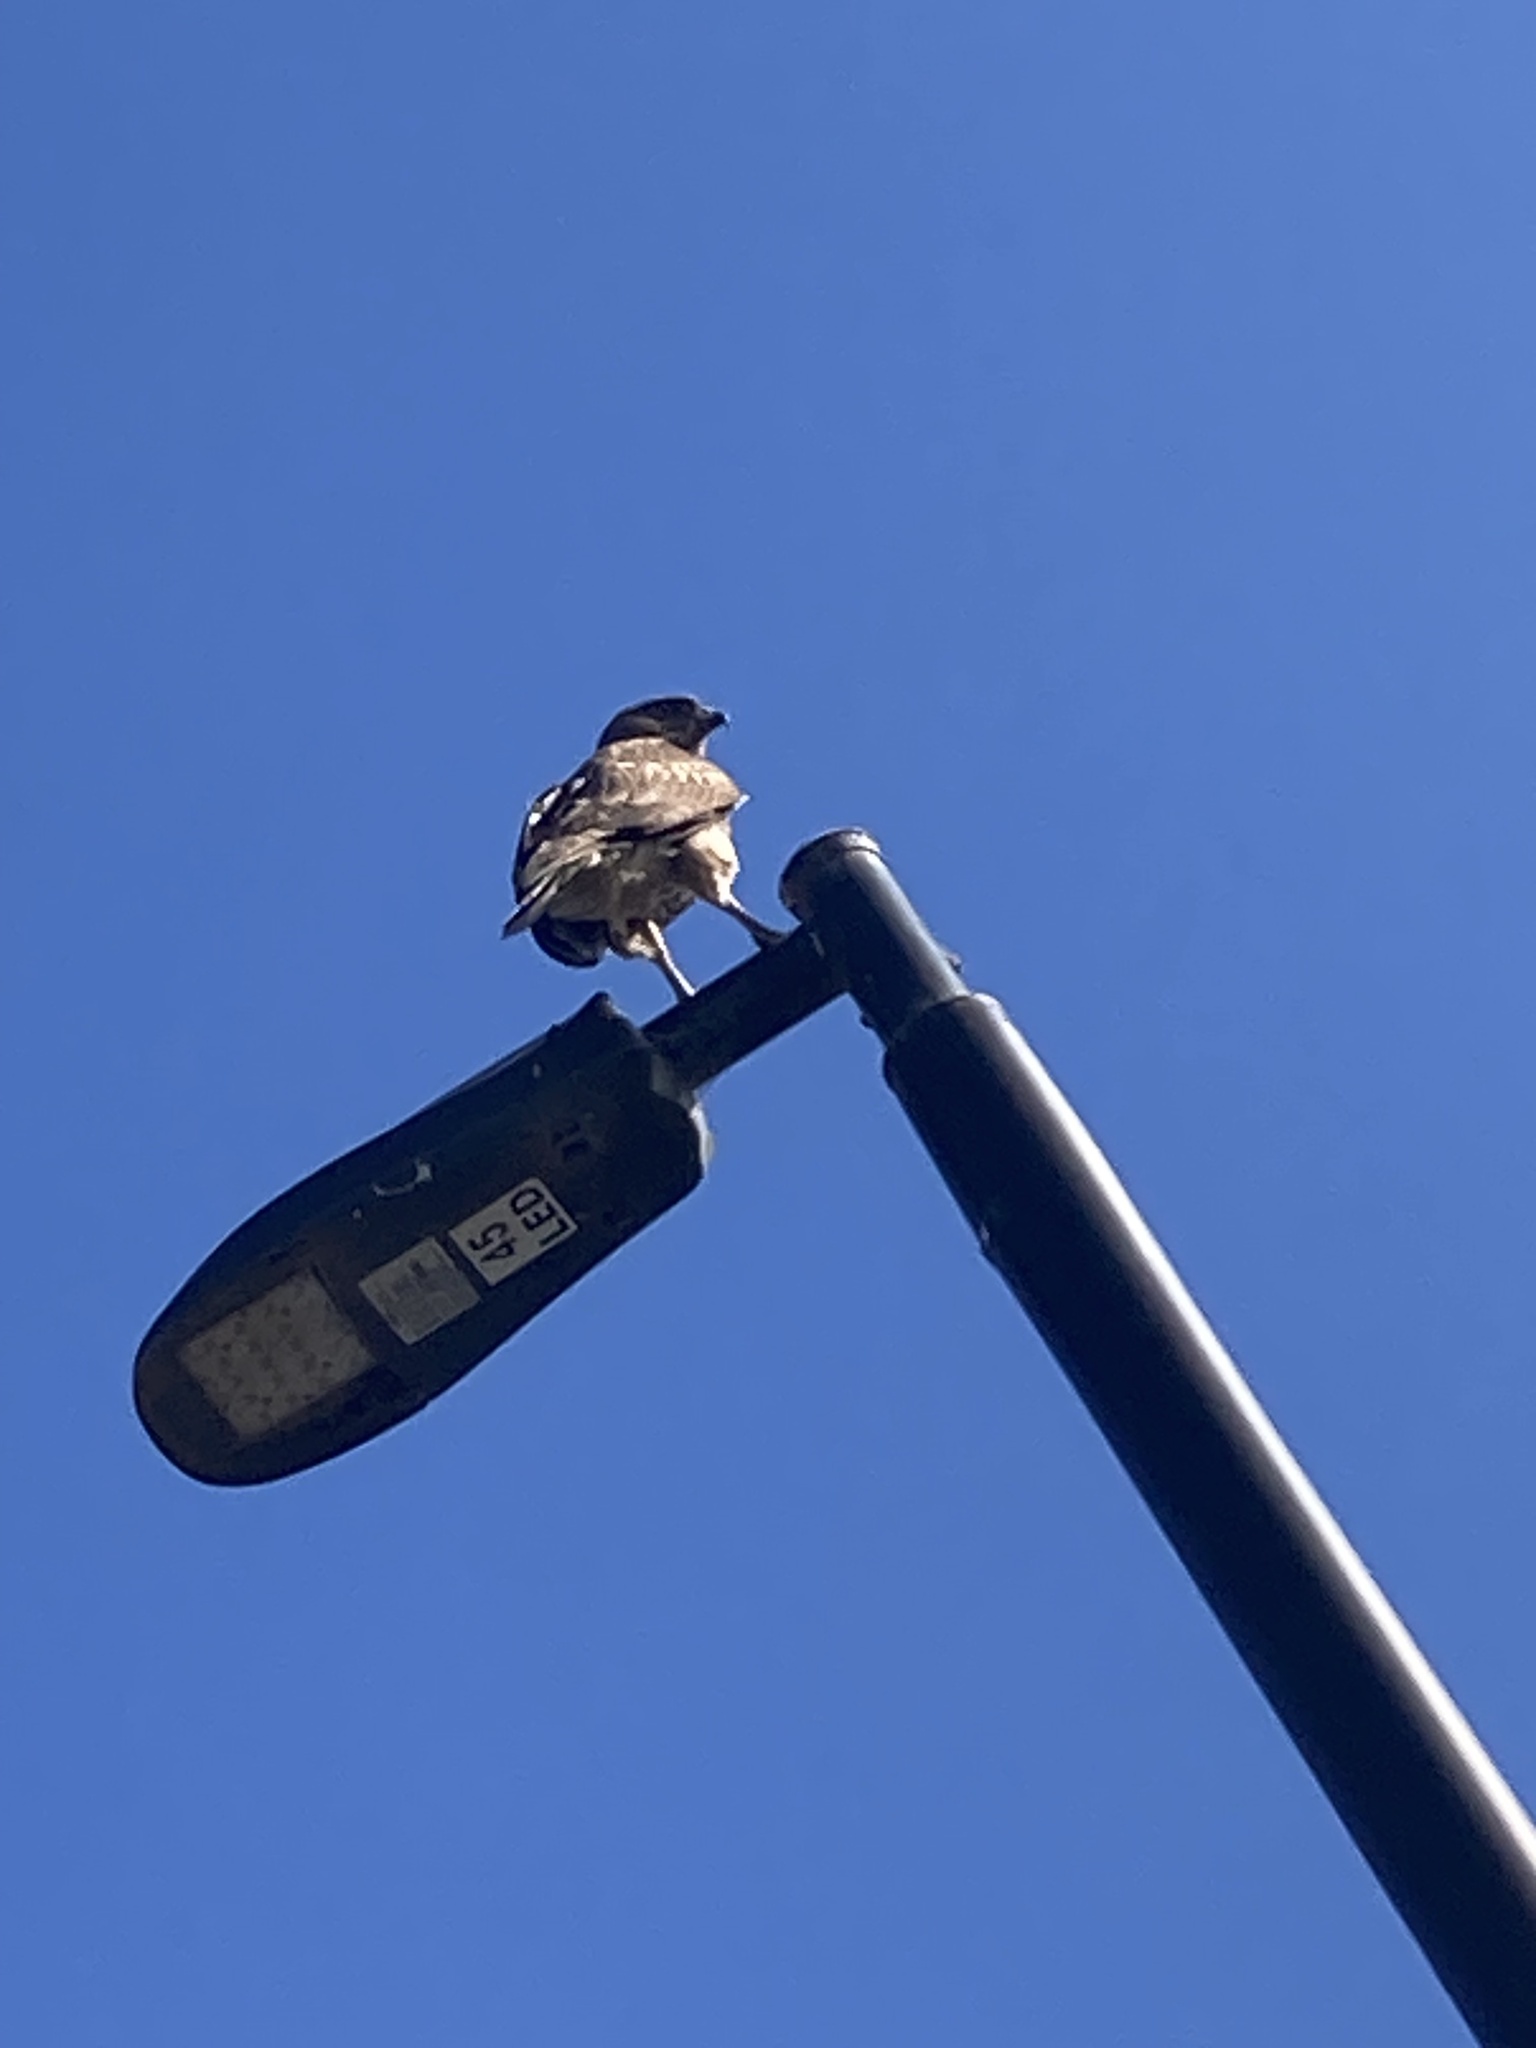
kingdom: Animalia
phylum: Chordata
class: Aves
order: Accipitriformes
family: Accipitridae
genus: Buteo
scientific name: Buteo jamaicensis
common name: Red-tailed hawk
